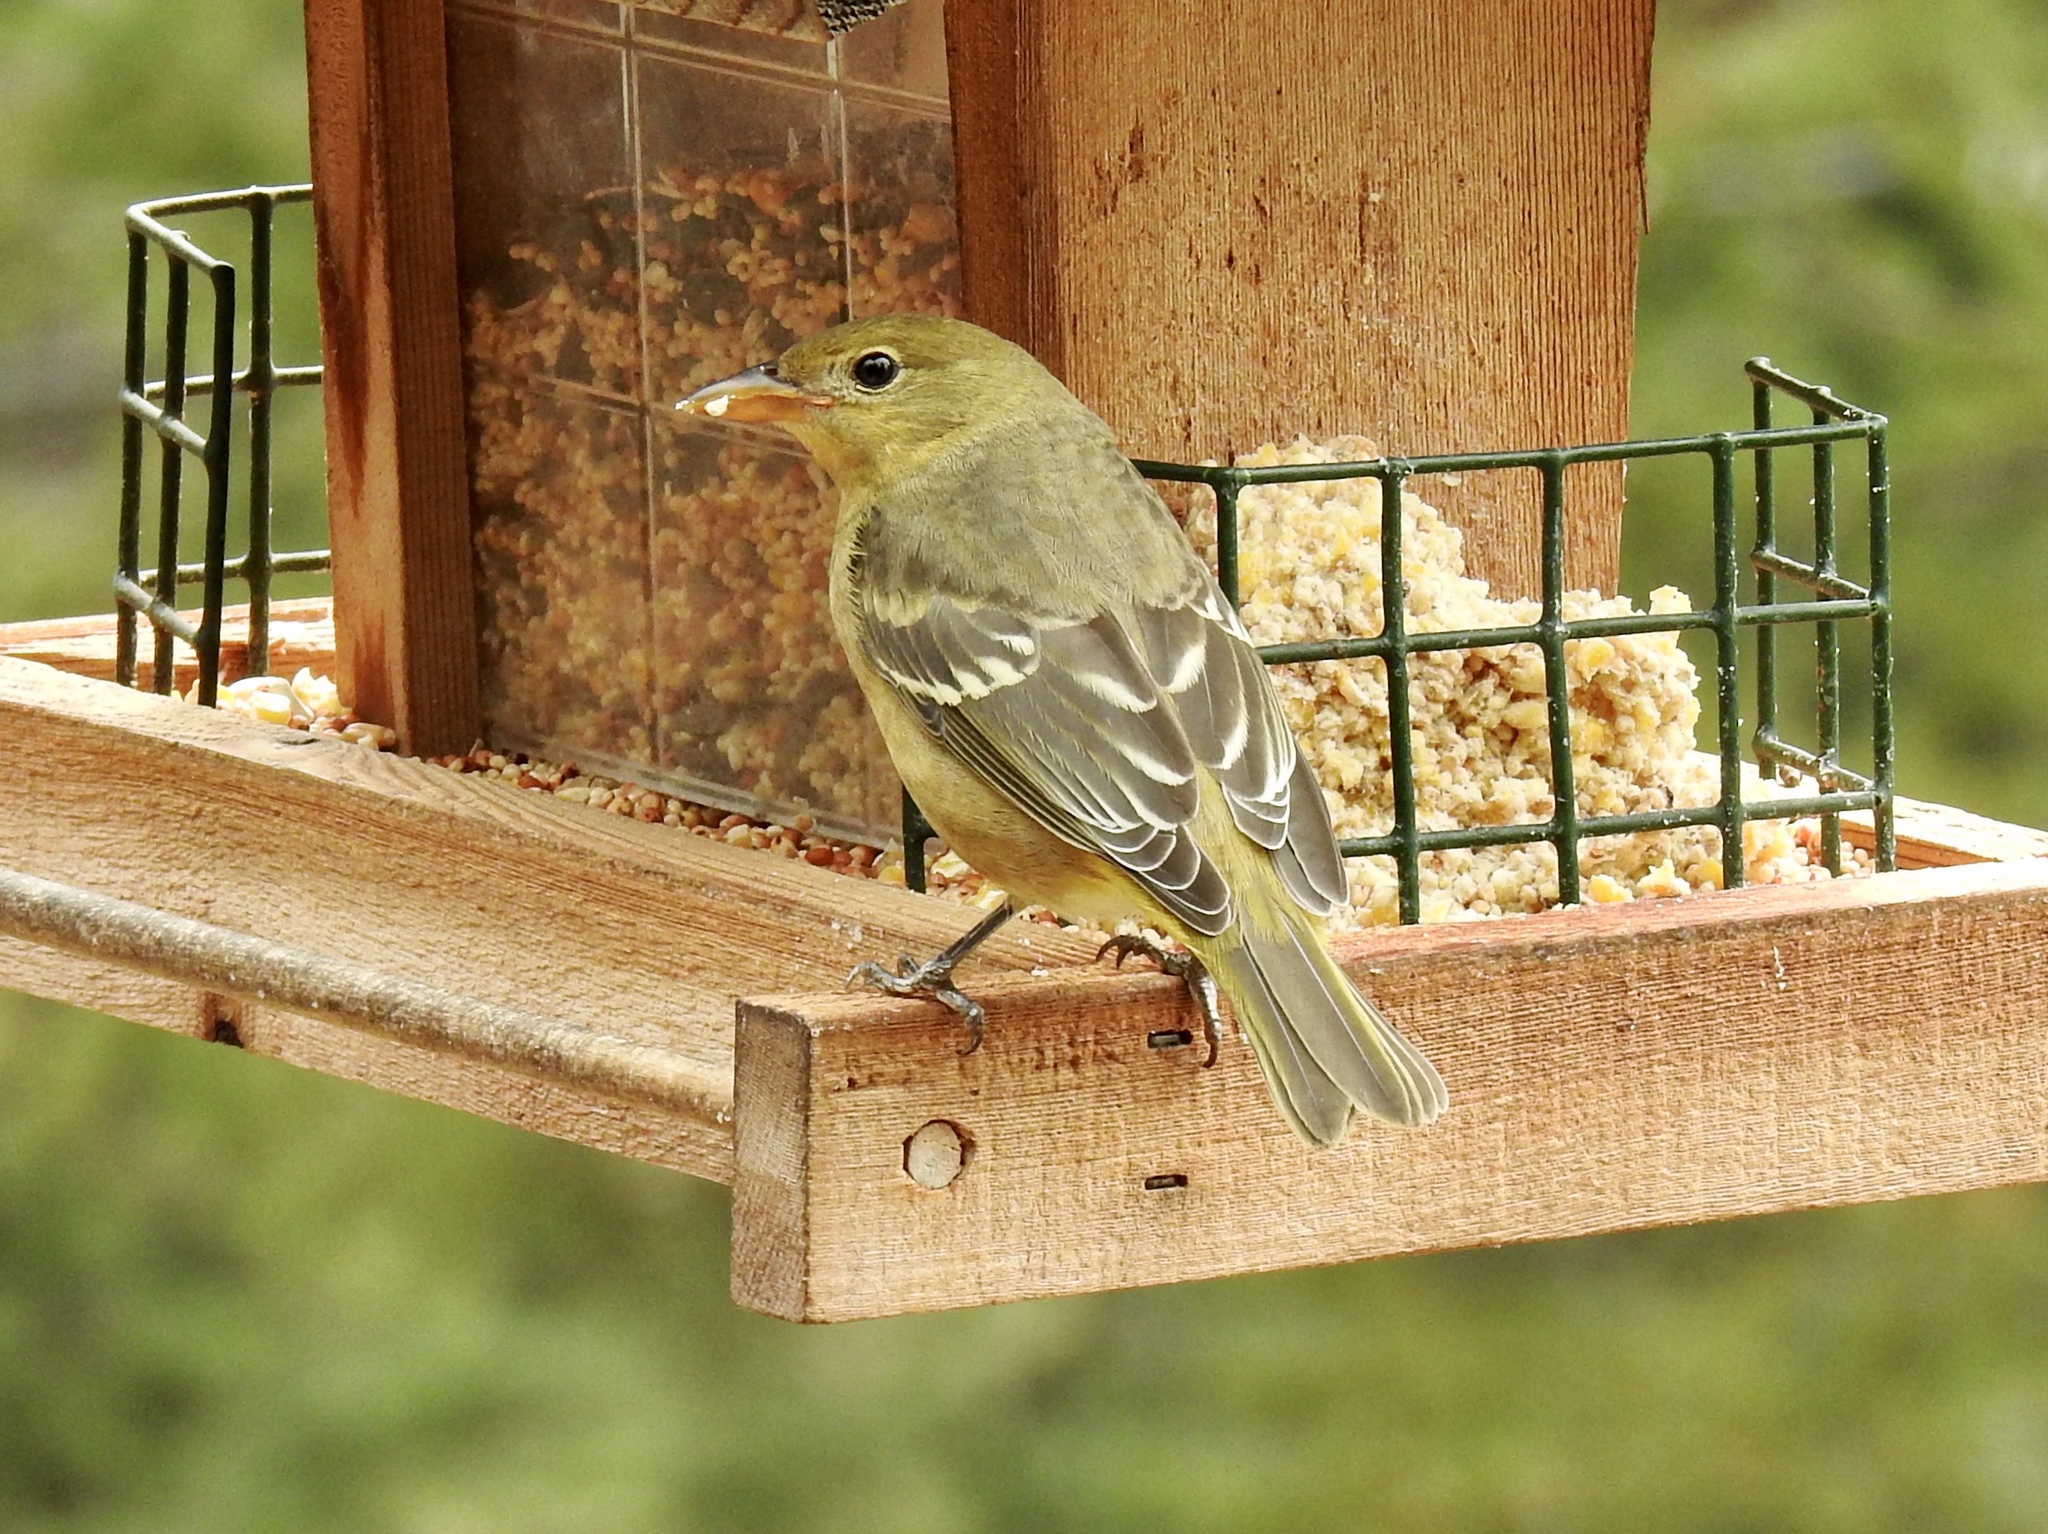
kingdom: Animalia
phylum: Chordata
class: Aves
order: Passeriformes
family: Cardinalidae
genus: Piranga
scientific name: Piranga ludoviciana
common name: Western tanager
